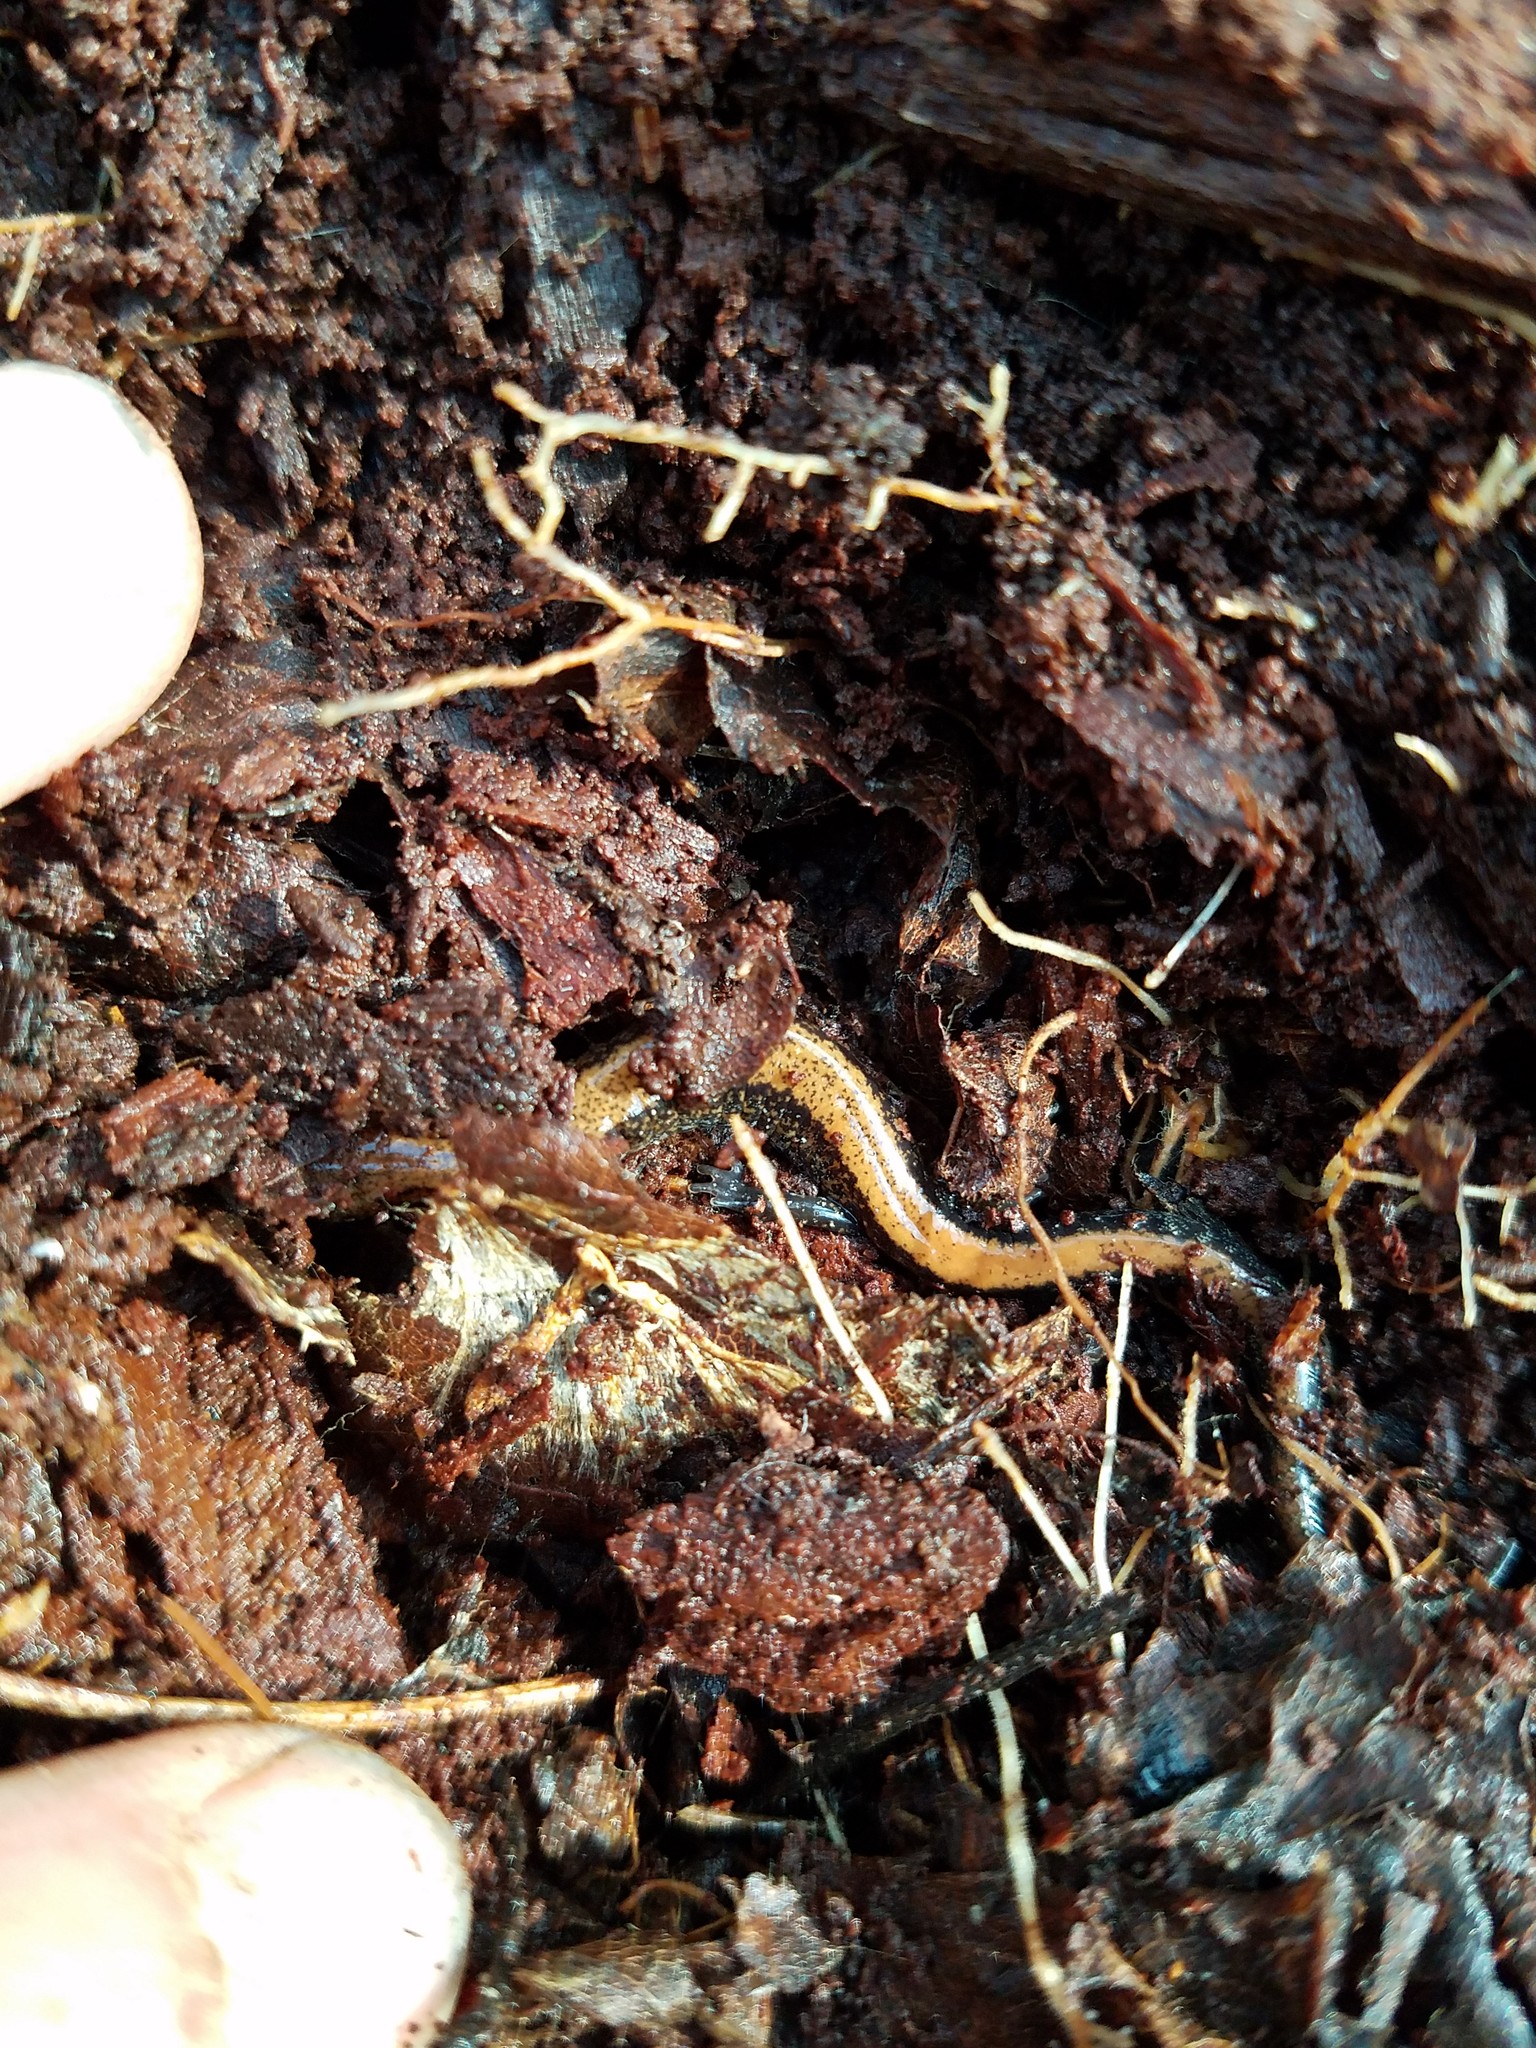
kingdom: Animalia
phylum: Chordata
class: Amphibia
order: Caudata
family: Plethodontidae
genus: Plethodon
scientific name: Plethodon cinereus
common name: Redback salamander
